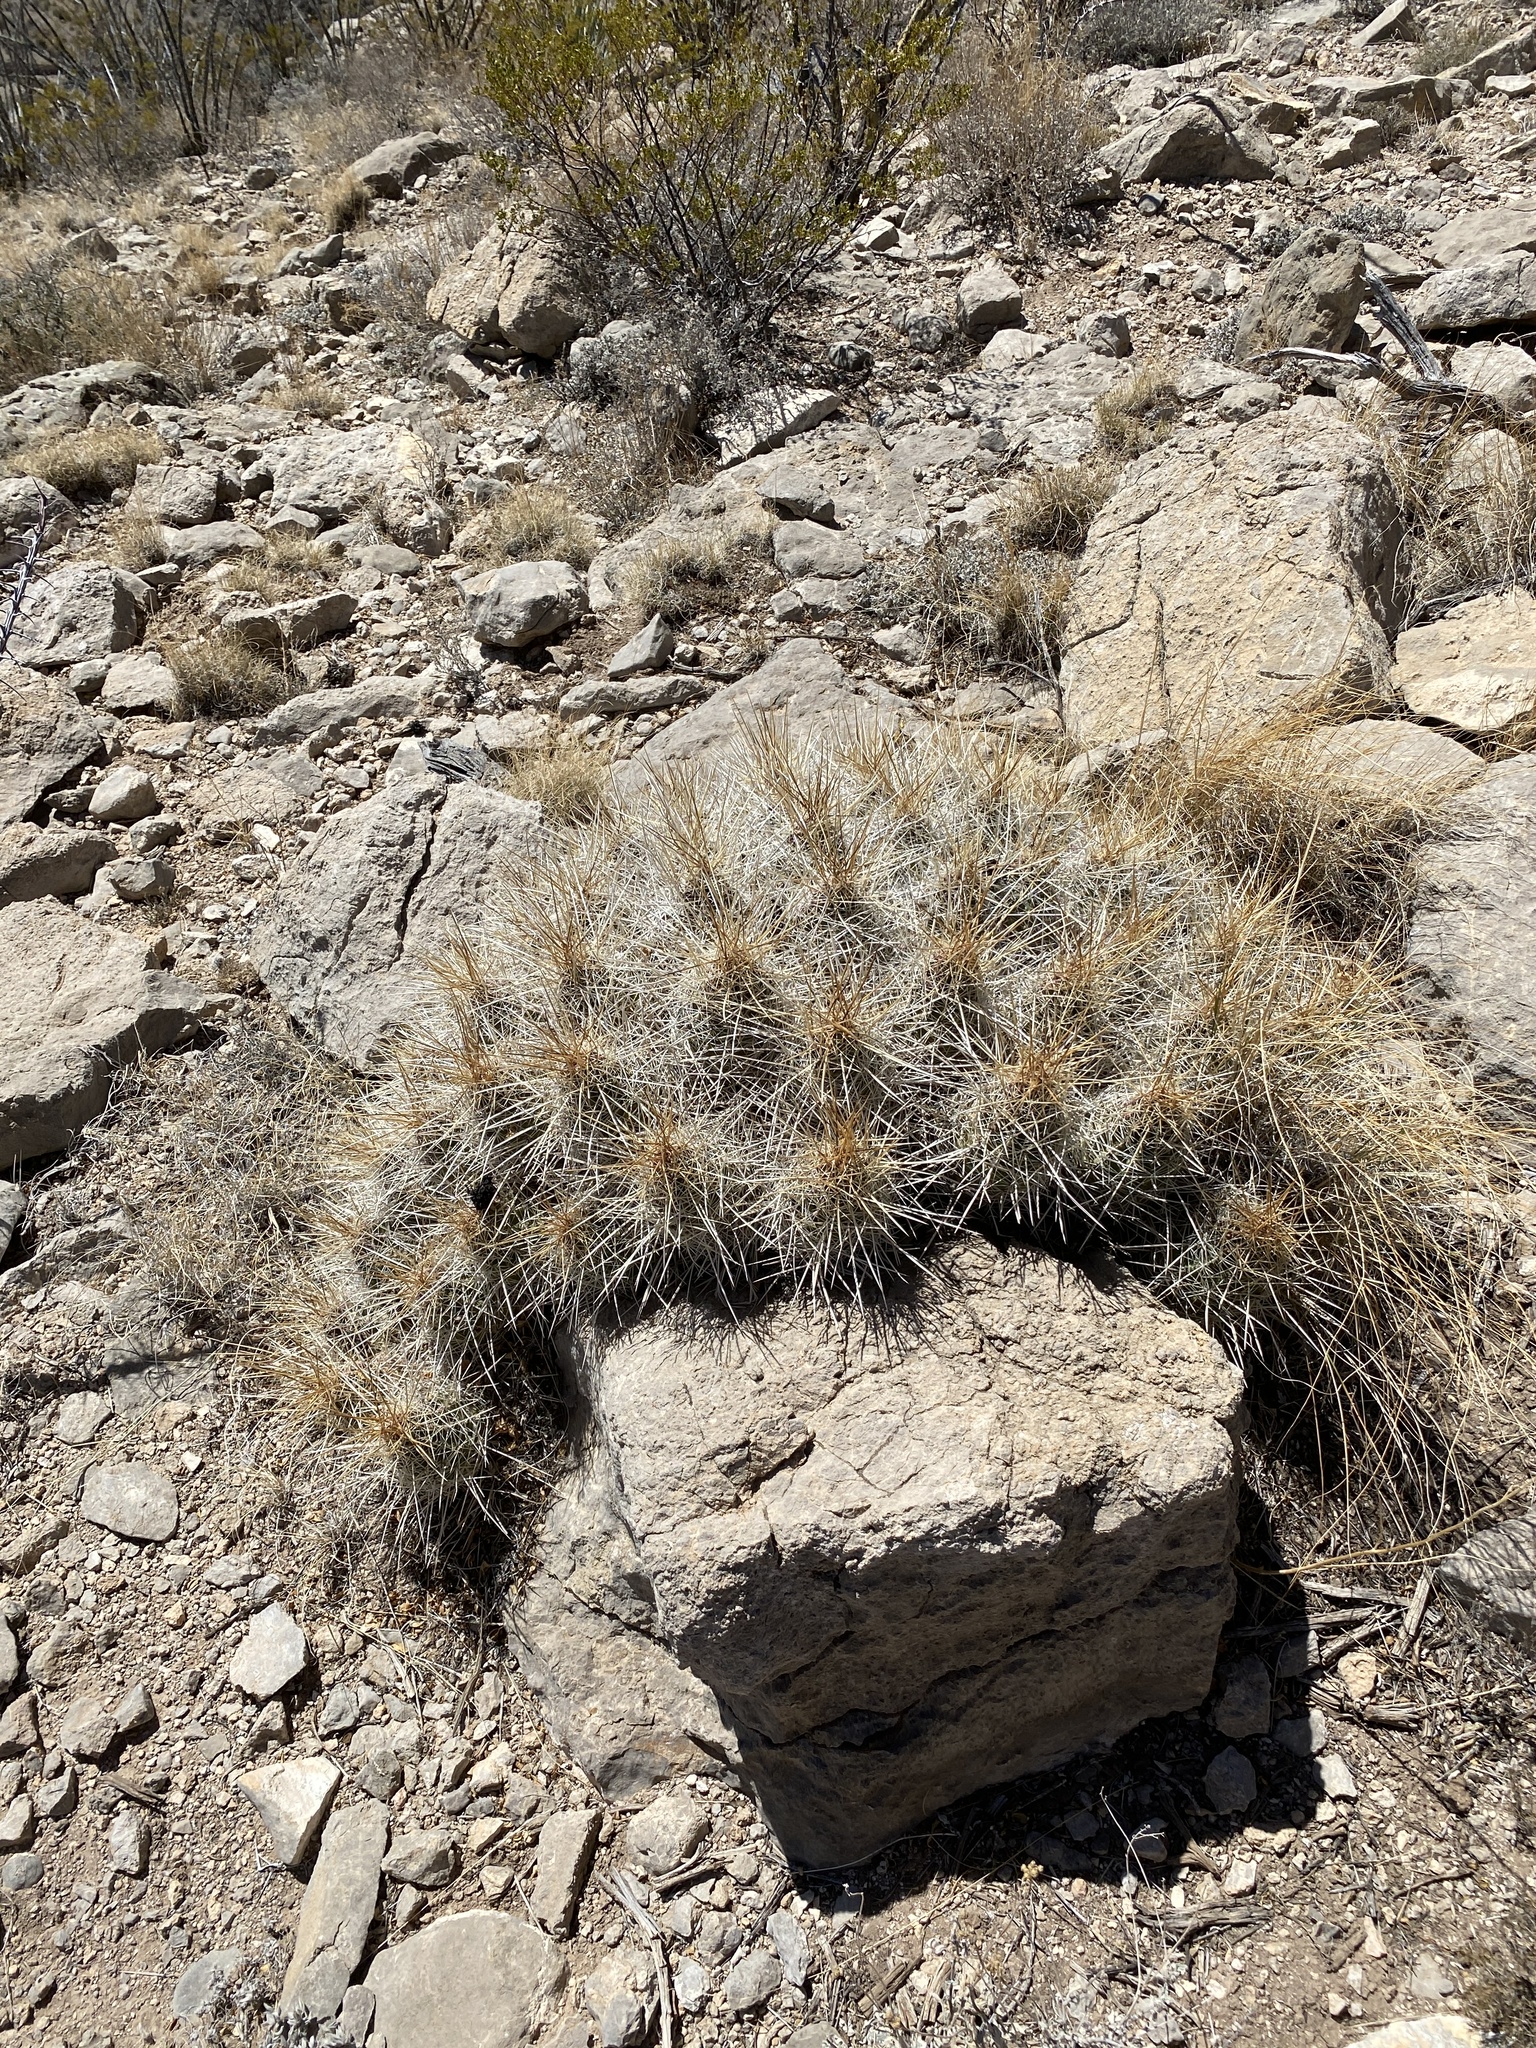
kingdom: Plantae
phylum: Tracheophyta
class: Magnoliopsida
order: Caryophyllales
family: Cactaceae
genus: Echinocereus
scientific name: Echinocereus stramineus
